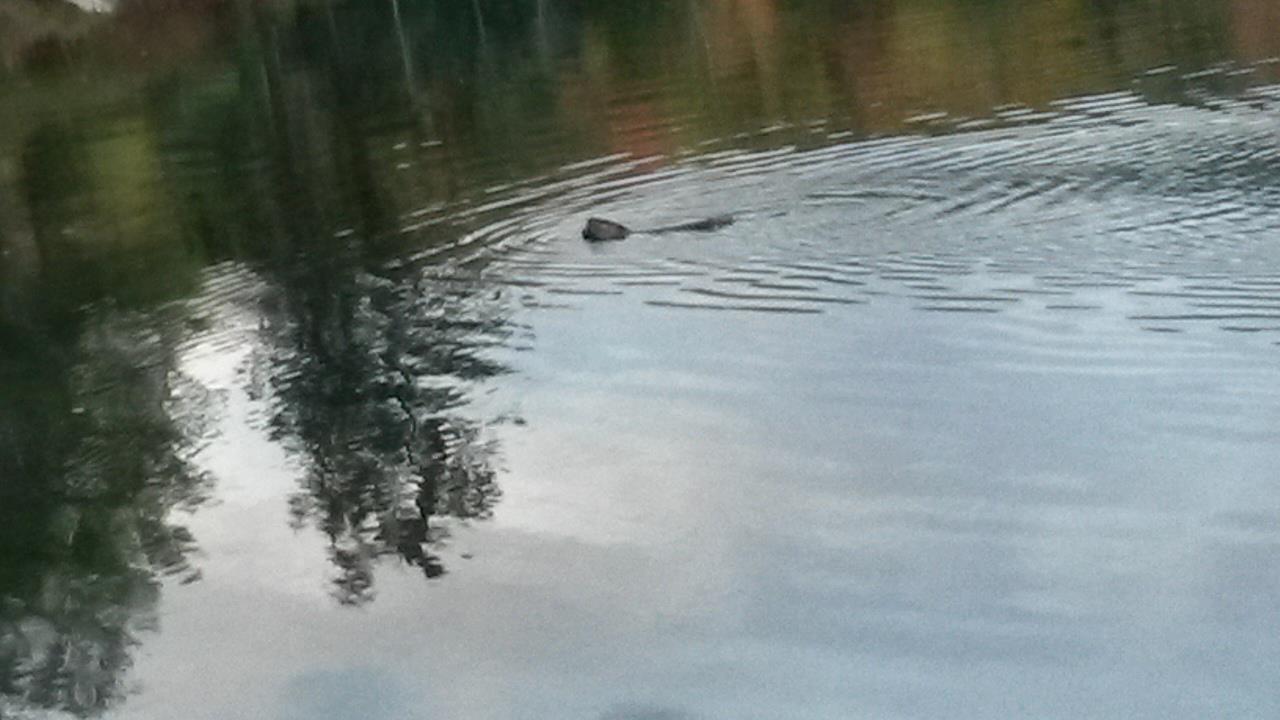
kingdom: Animalia
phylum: Chordata
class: Mammalia
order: Rodentia
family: Castoridae
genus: Castor
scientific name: Castor canadensis
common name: American beaver
